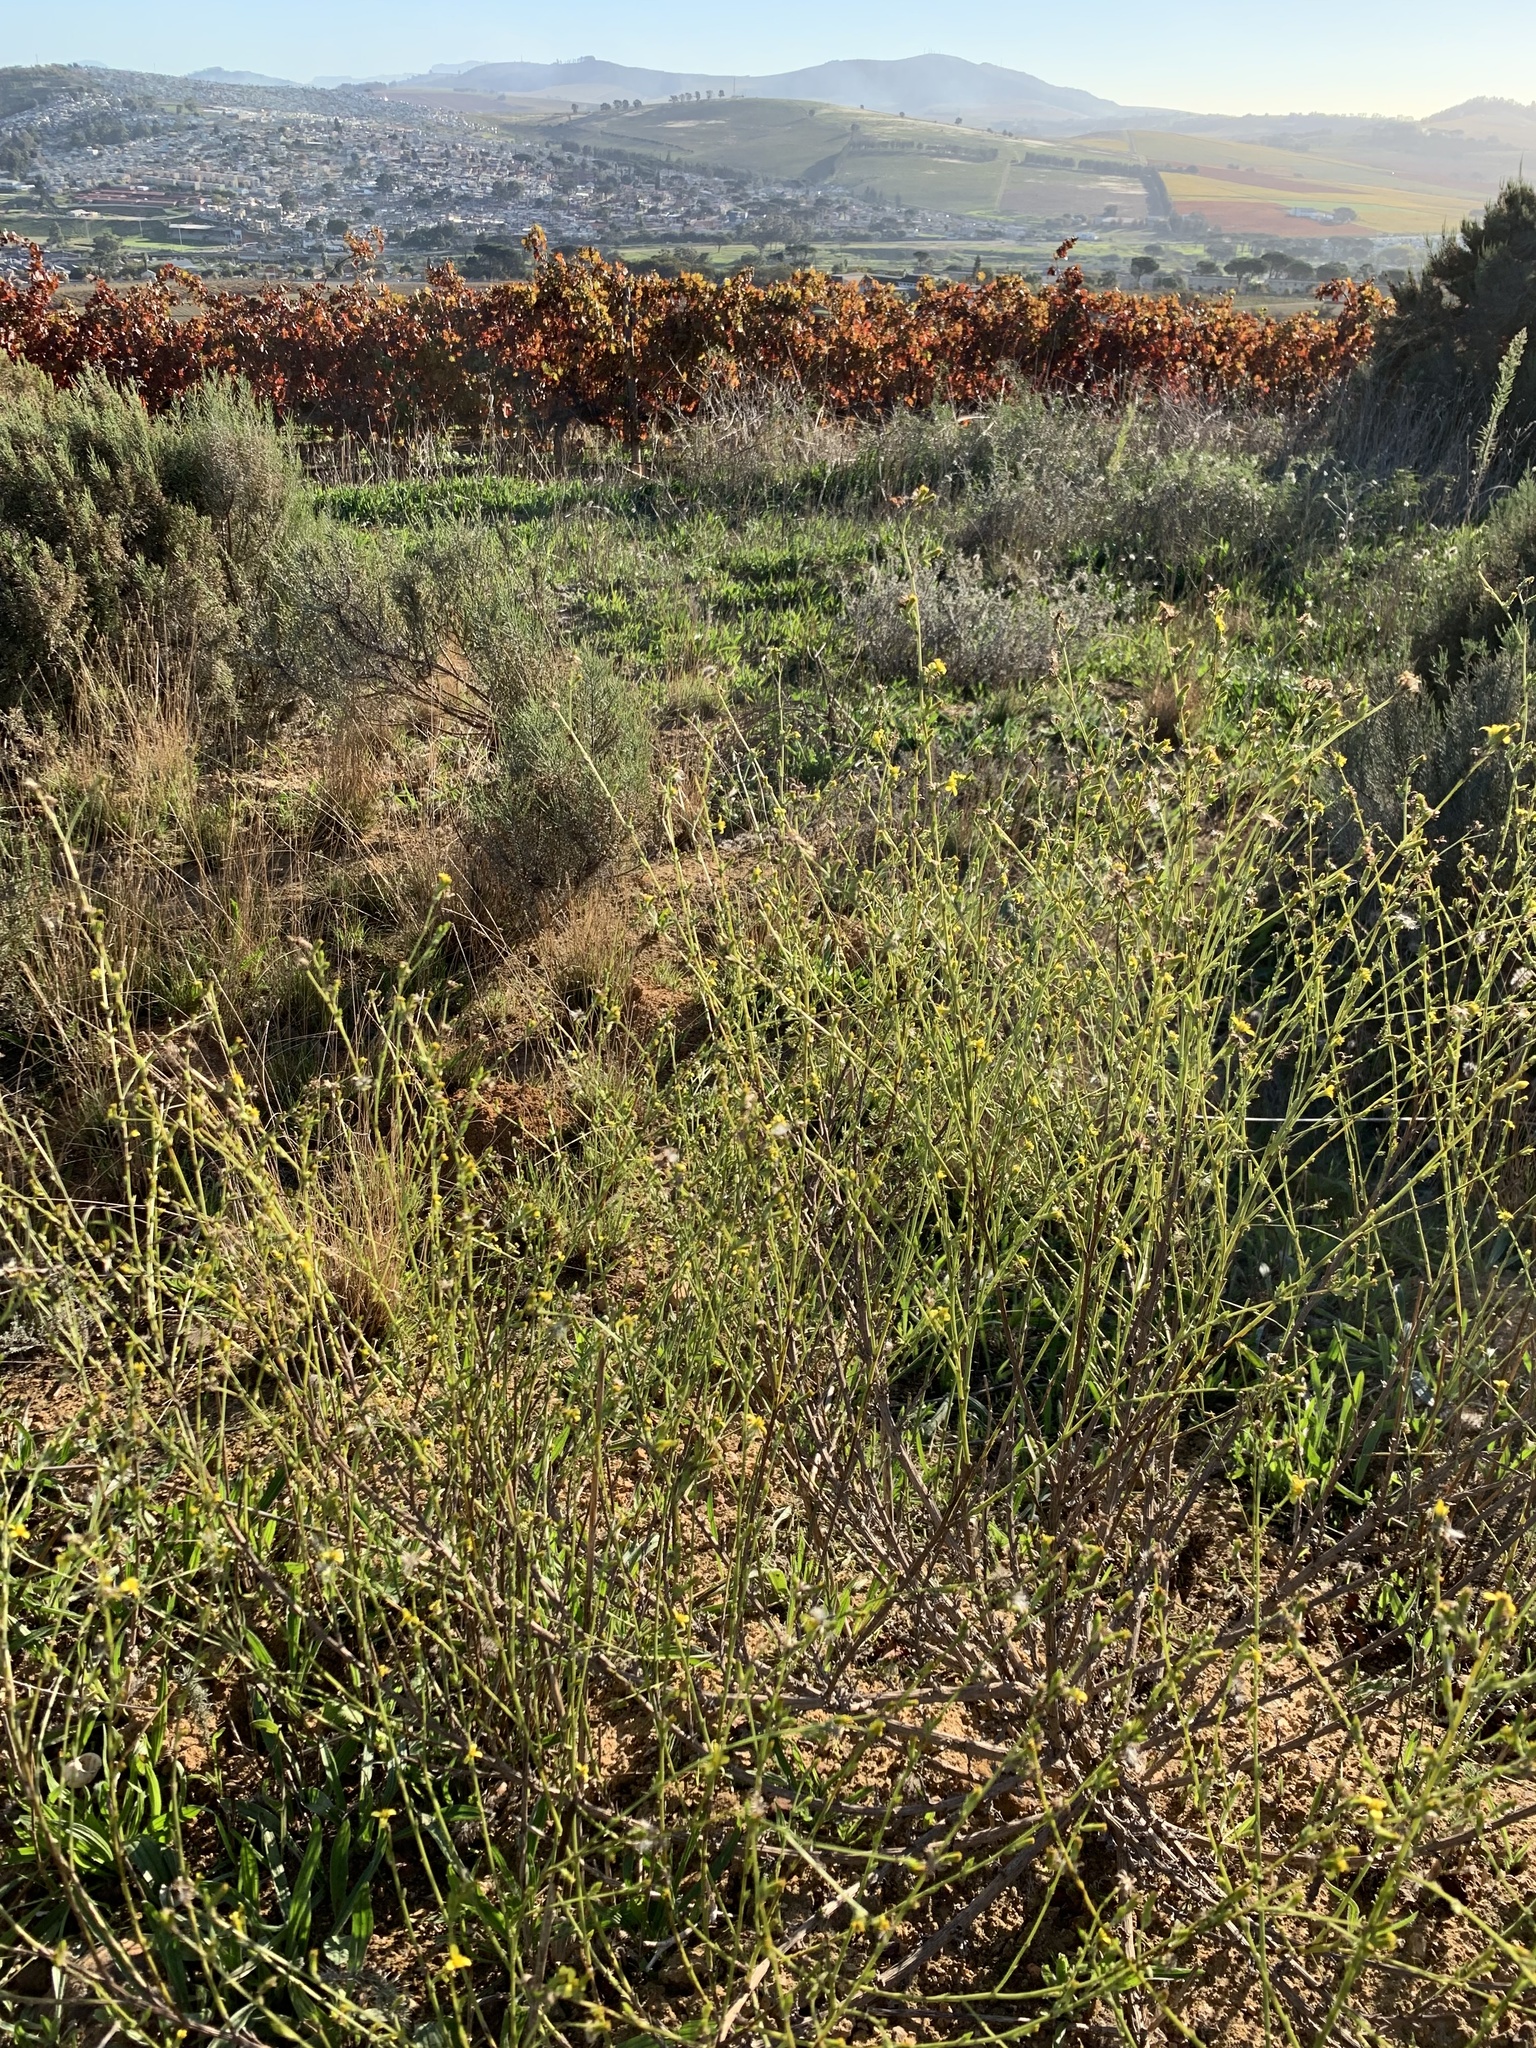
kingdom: Plantae
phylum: Tracheophyta
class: Magnoliopsida
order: Asterales
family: Asteraceae
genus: Senecio
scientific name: Senecio pubigerus
